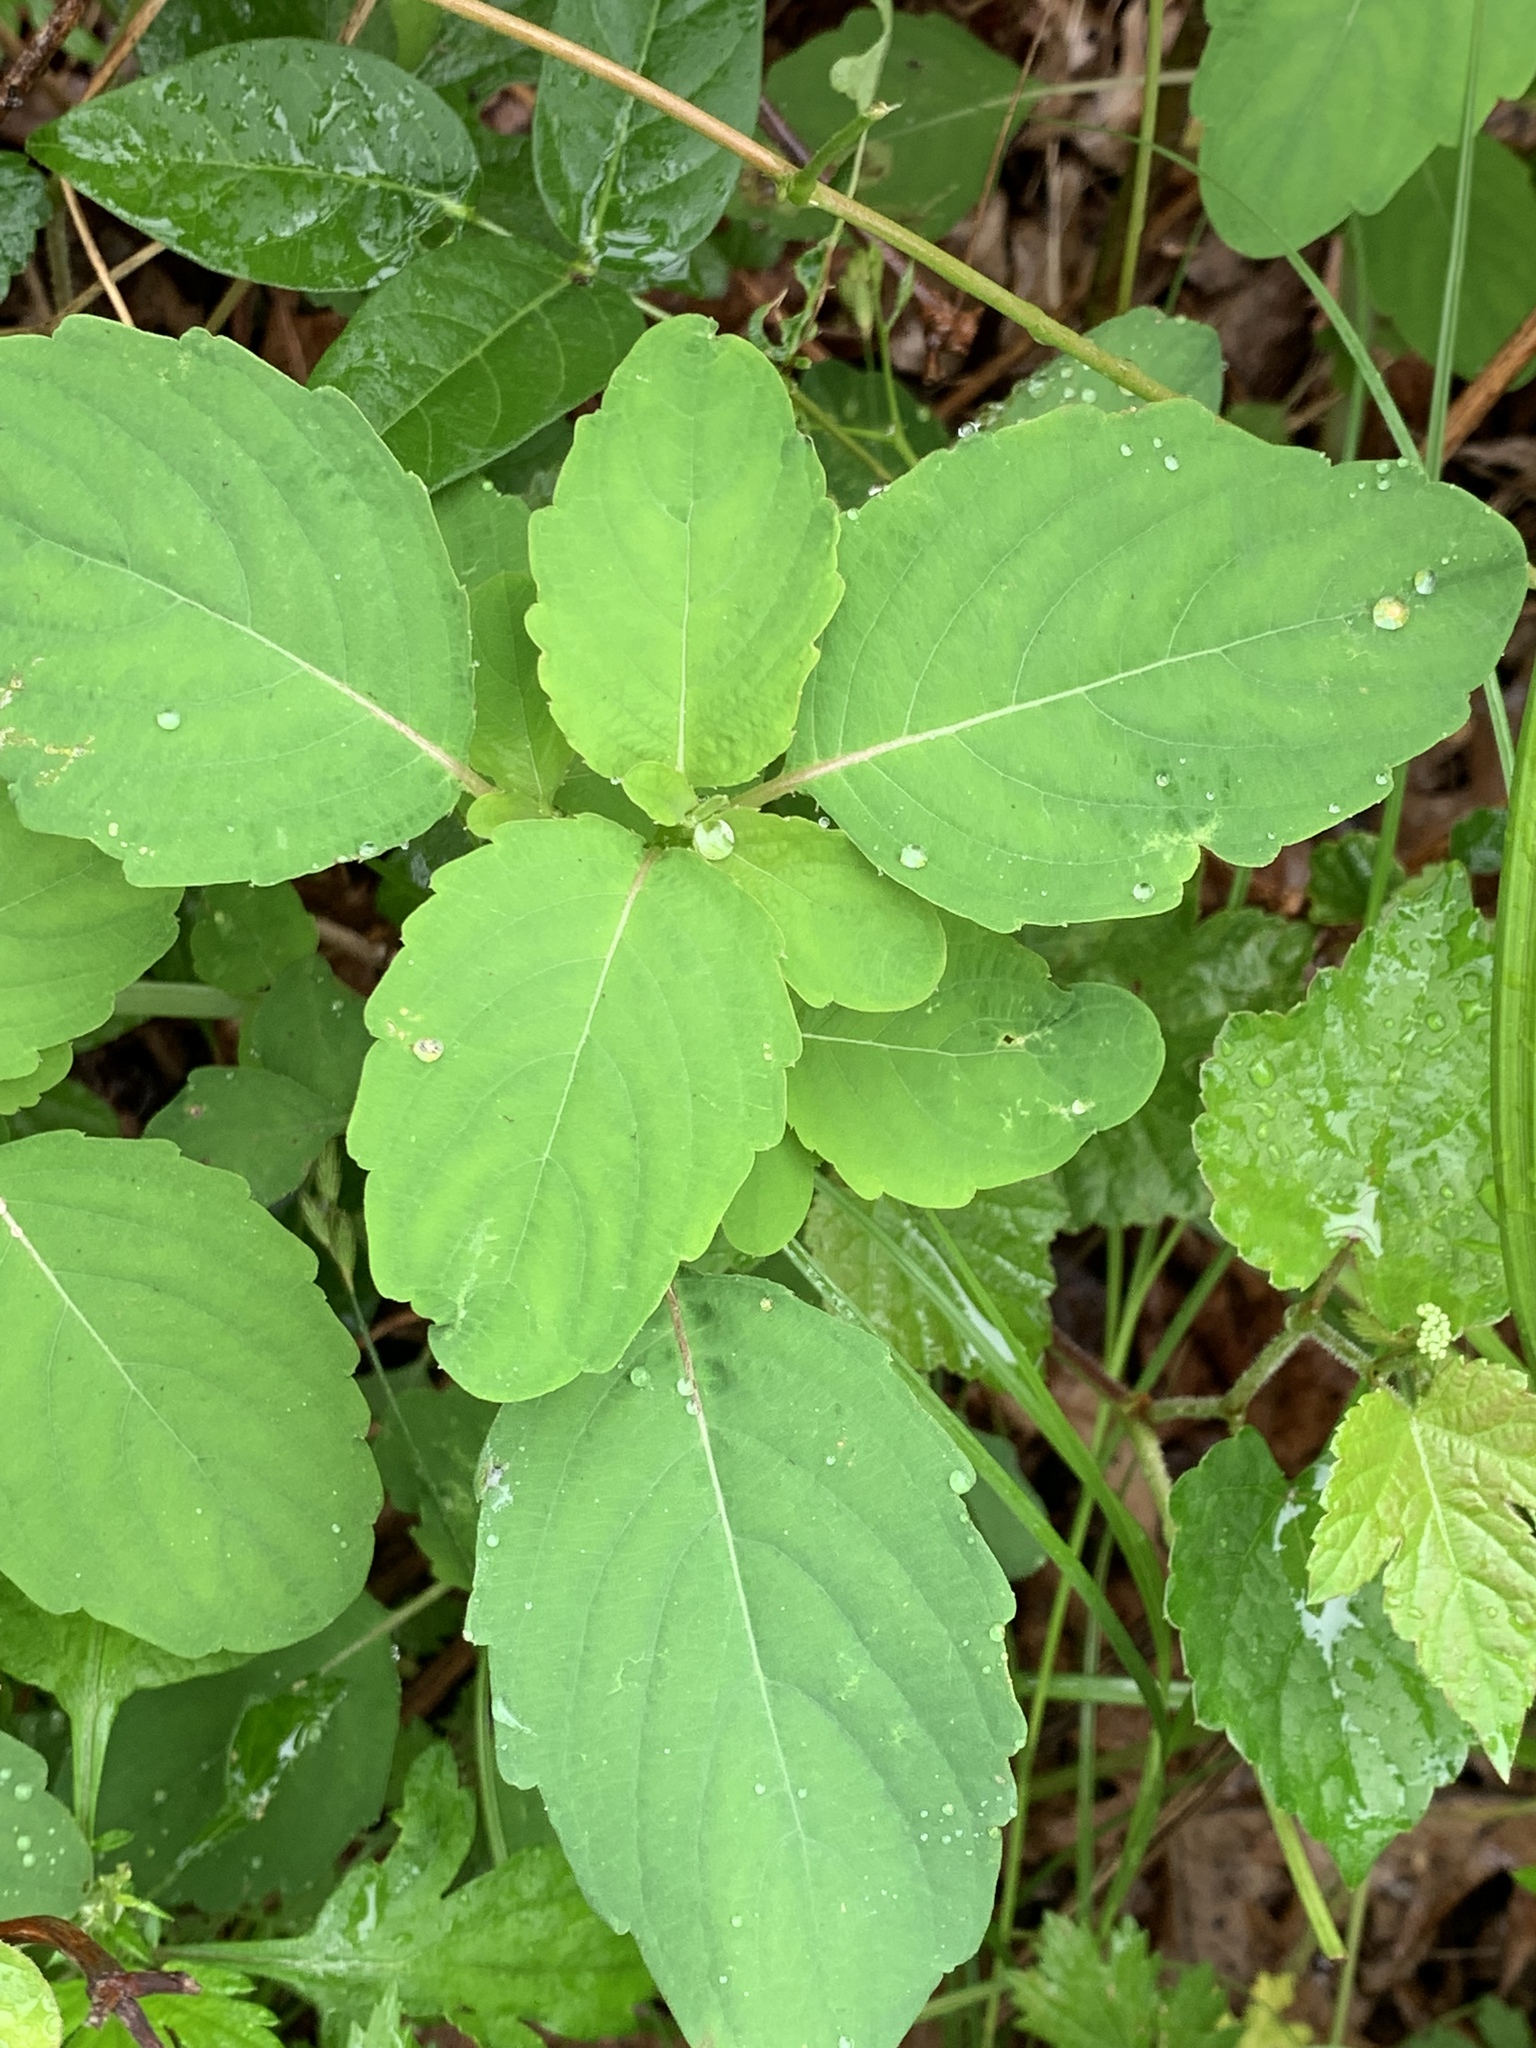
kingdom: Plantae
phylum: Tracheophyta
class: Magnoliopsida
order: Ericales
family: Balsaminaceae
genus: Impatiens
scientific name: Impatiens capensis
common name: Orange balsam
